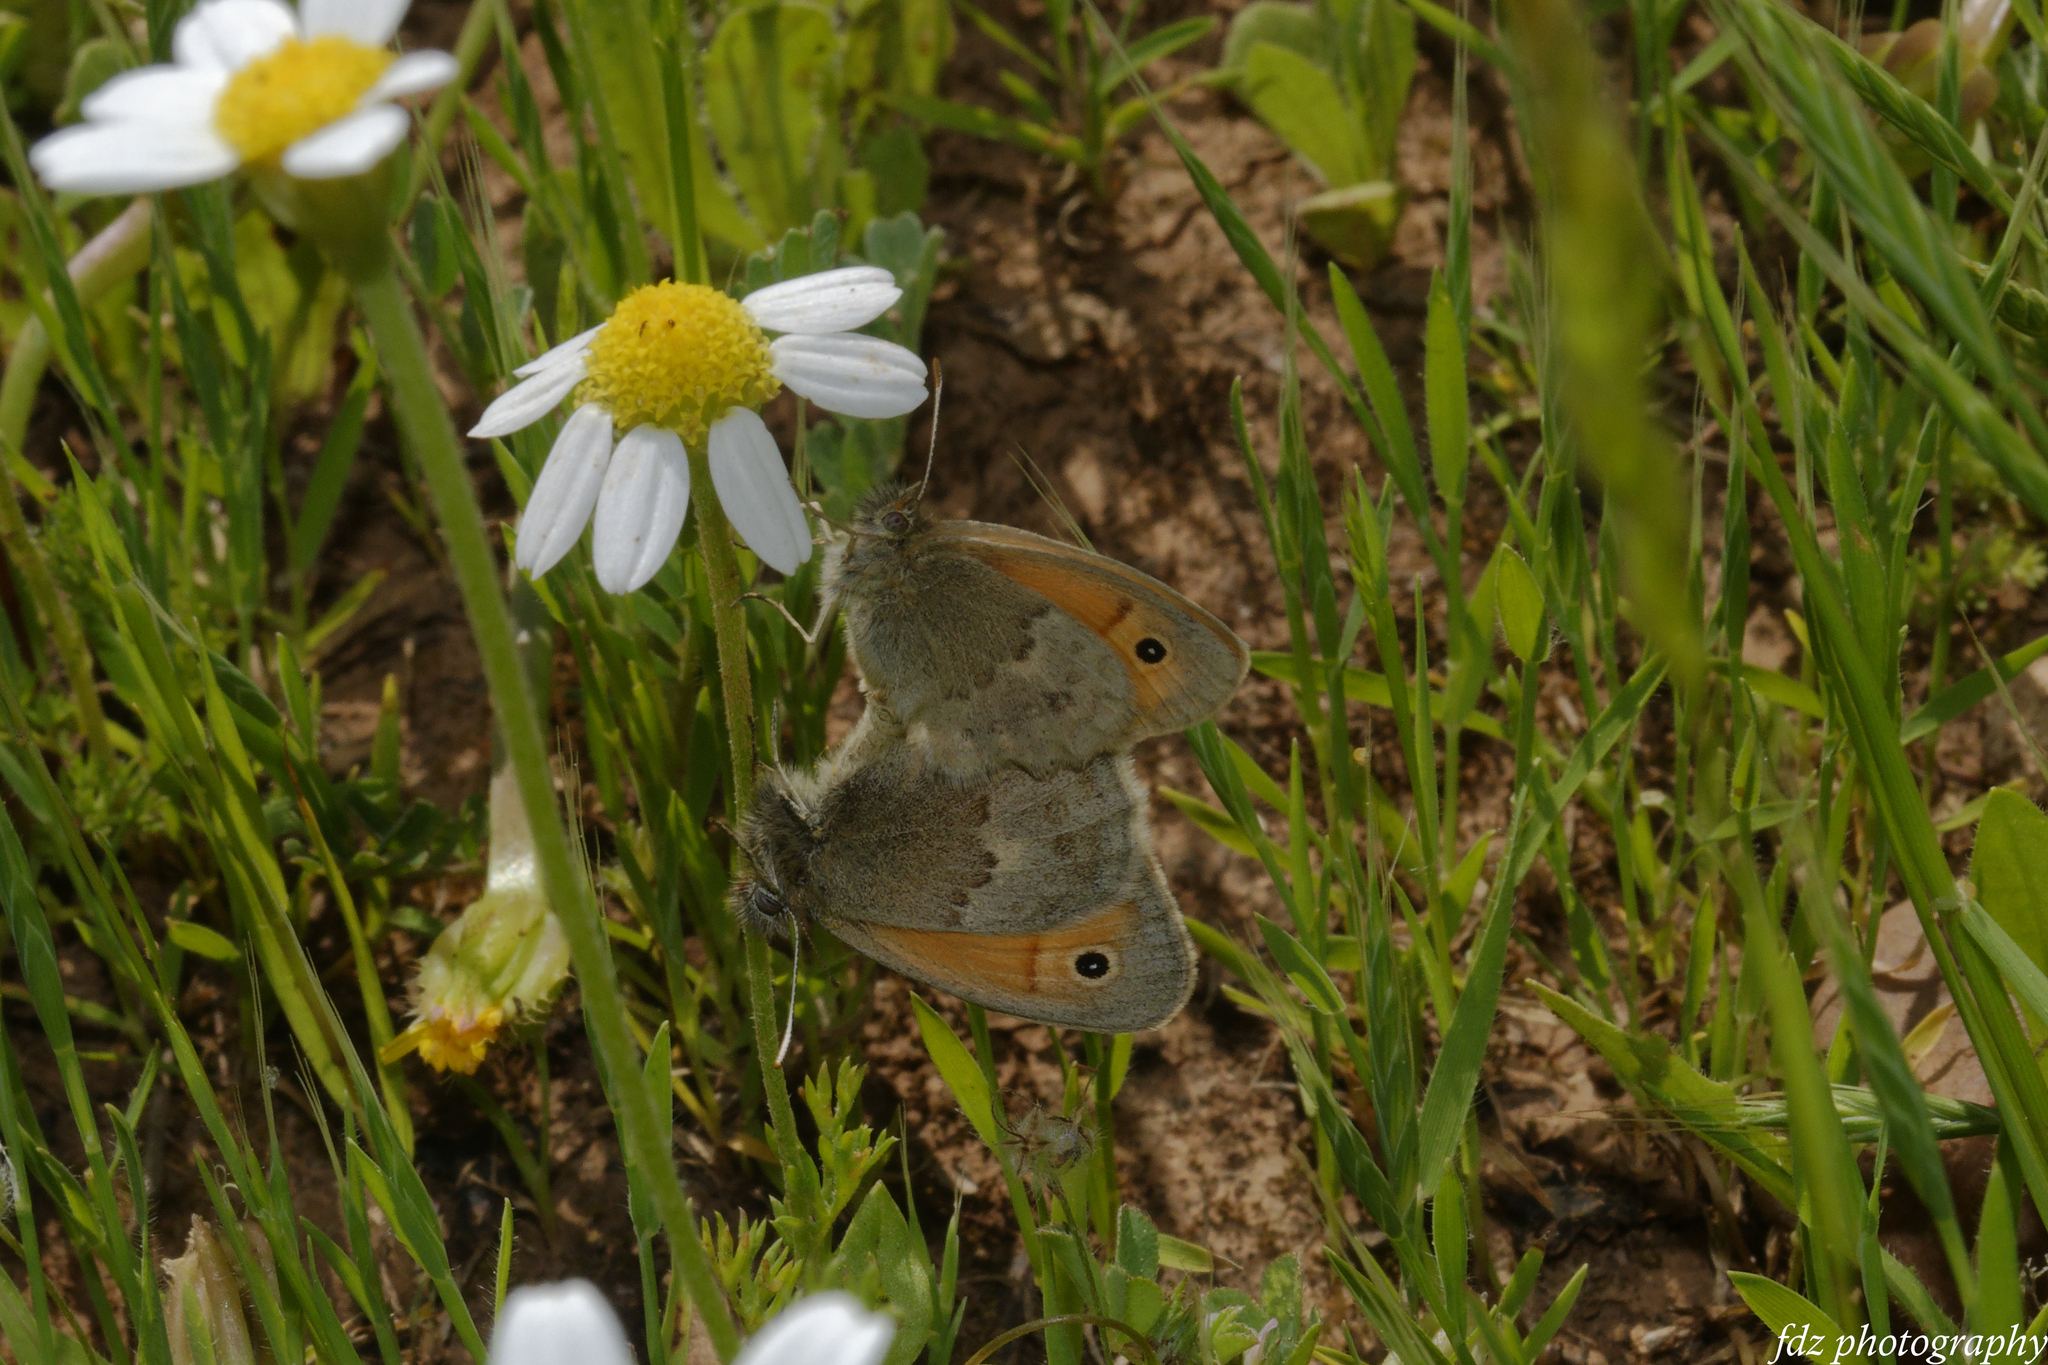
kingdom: Animalia
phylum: Arthropoda
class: Insecta
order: Lepidoptera
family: Nymphalidae
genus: Coenonympha
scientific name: Coenonympha pamphilus
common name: Small heath
